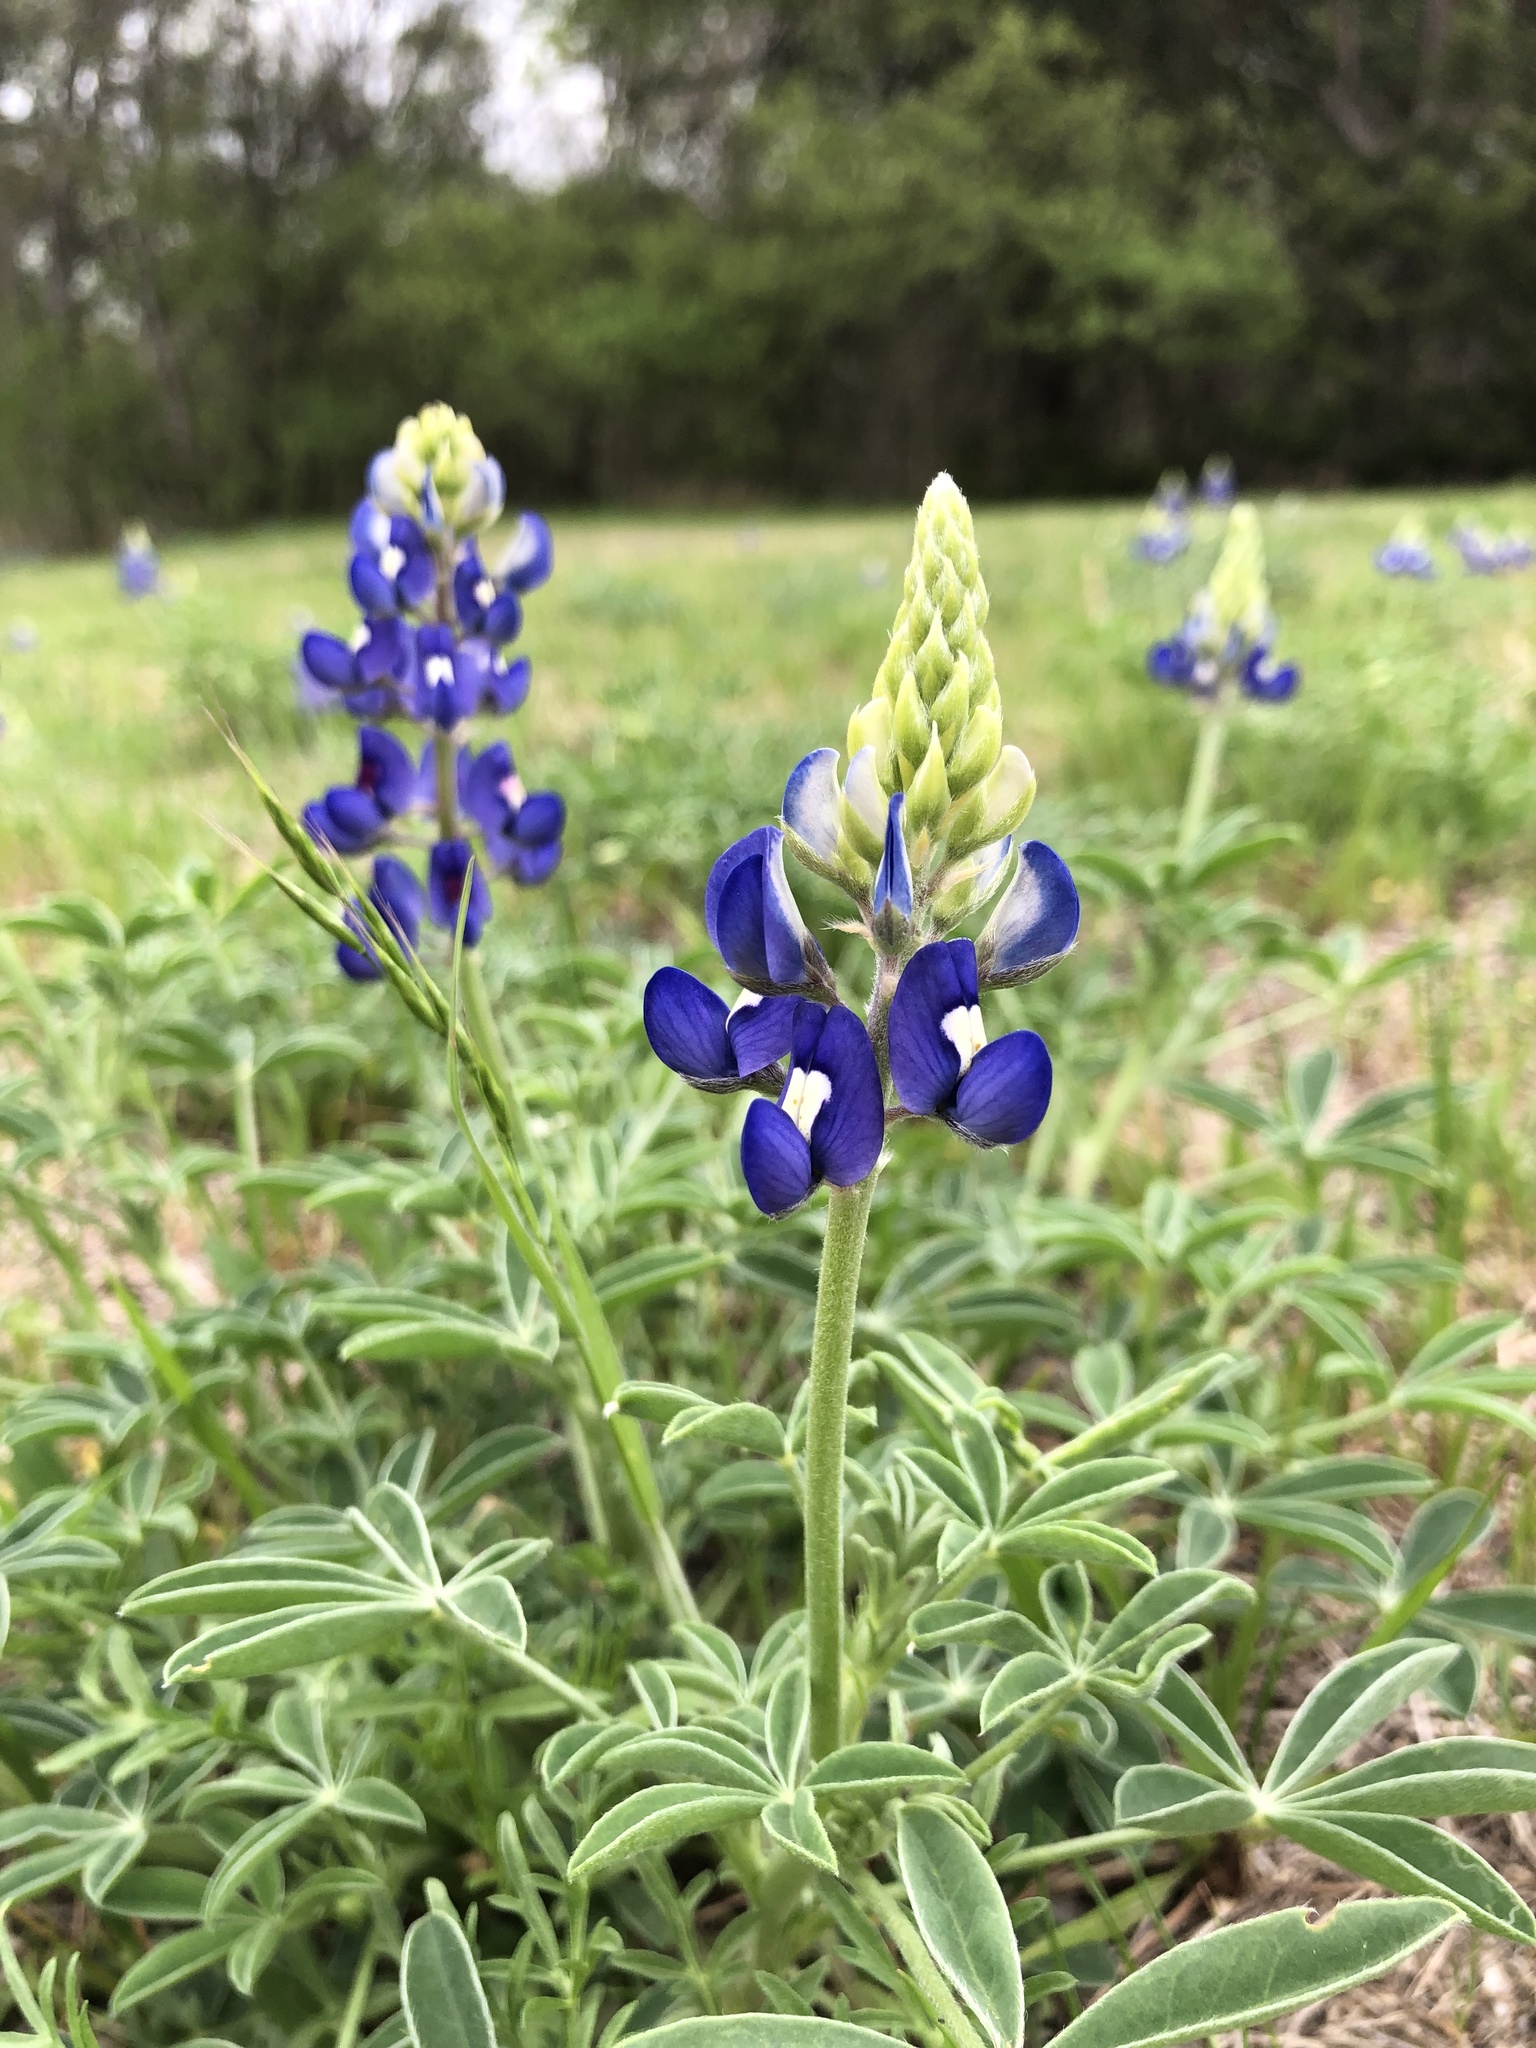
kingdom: Plantae
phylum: Tracheophyta
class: Magnoliopsida
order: Fabales
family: Fabaceae
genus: Lupinus
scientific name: Lupinus texensis
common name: Texas bluebonnet
